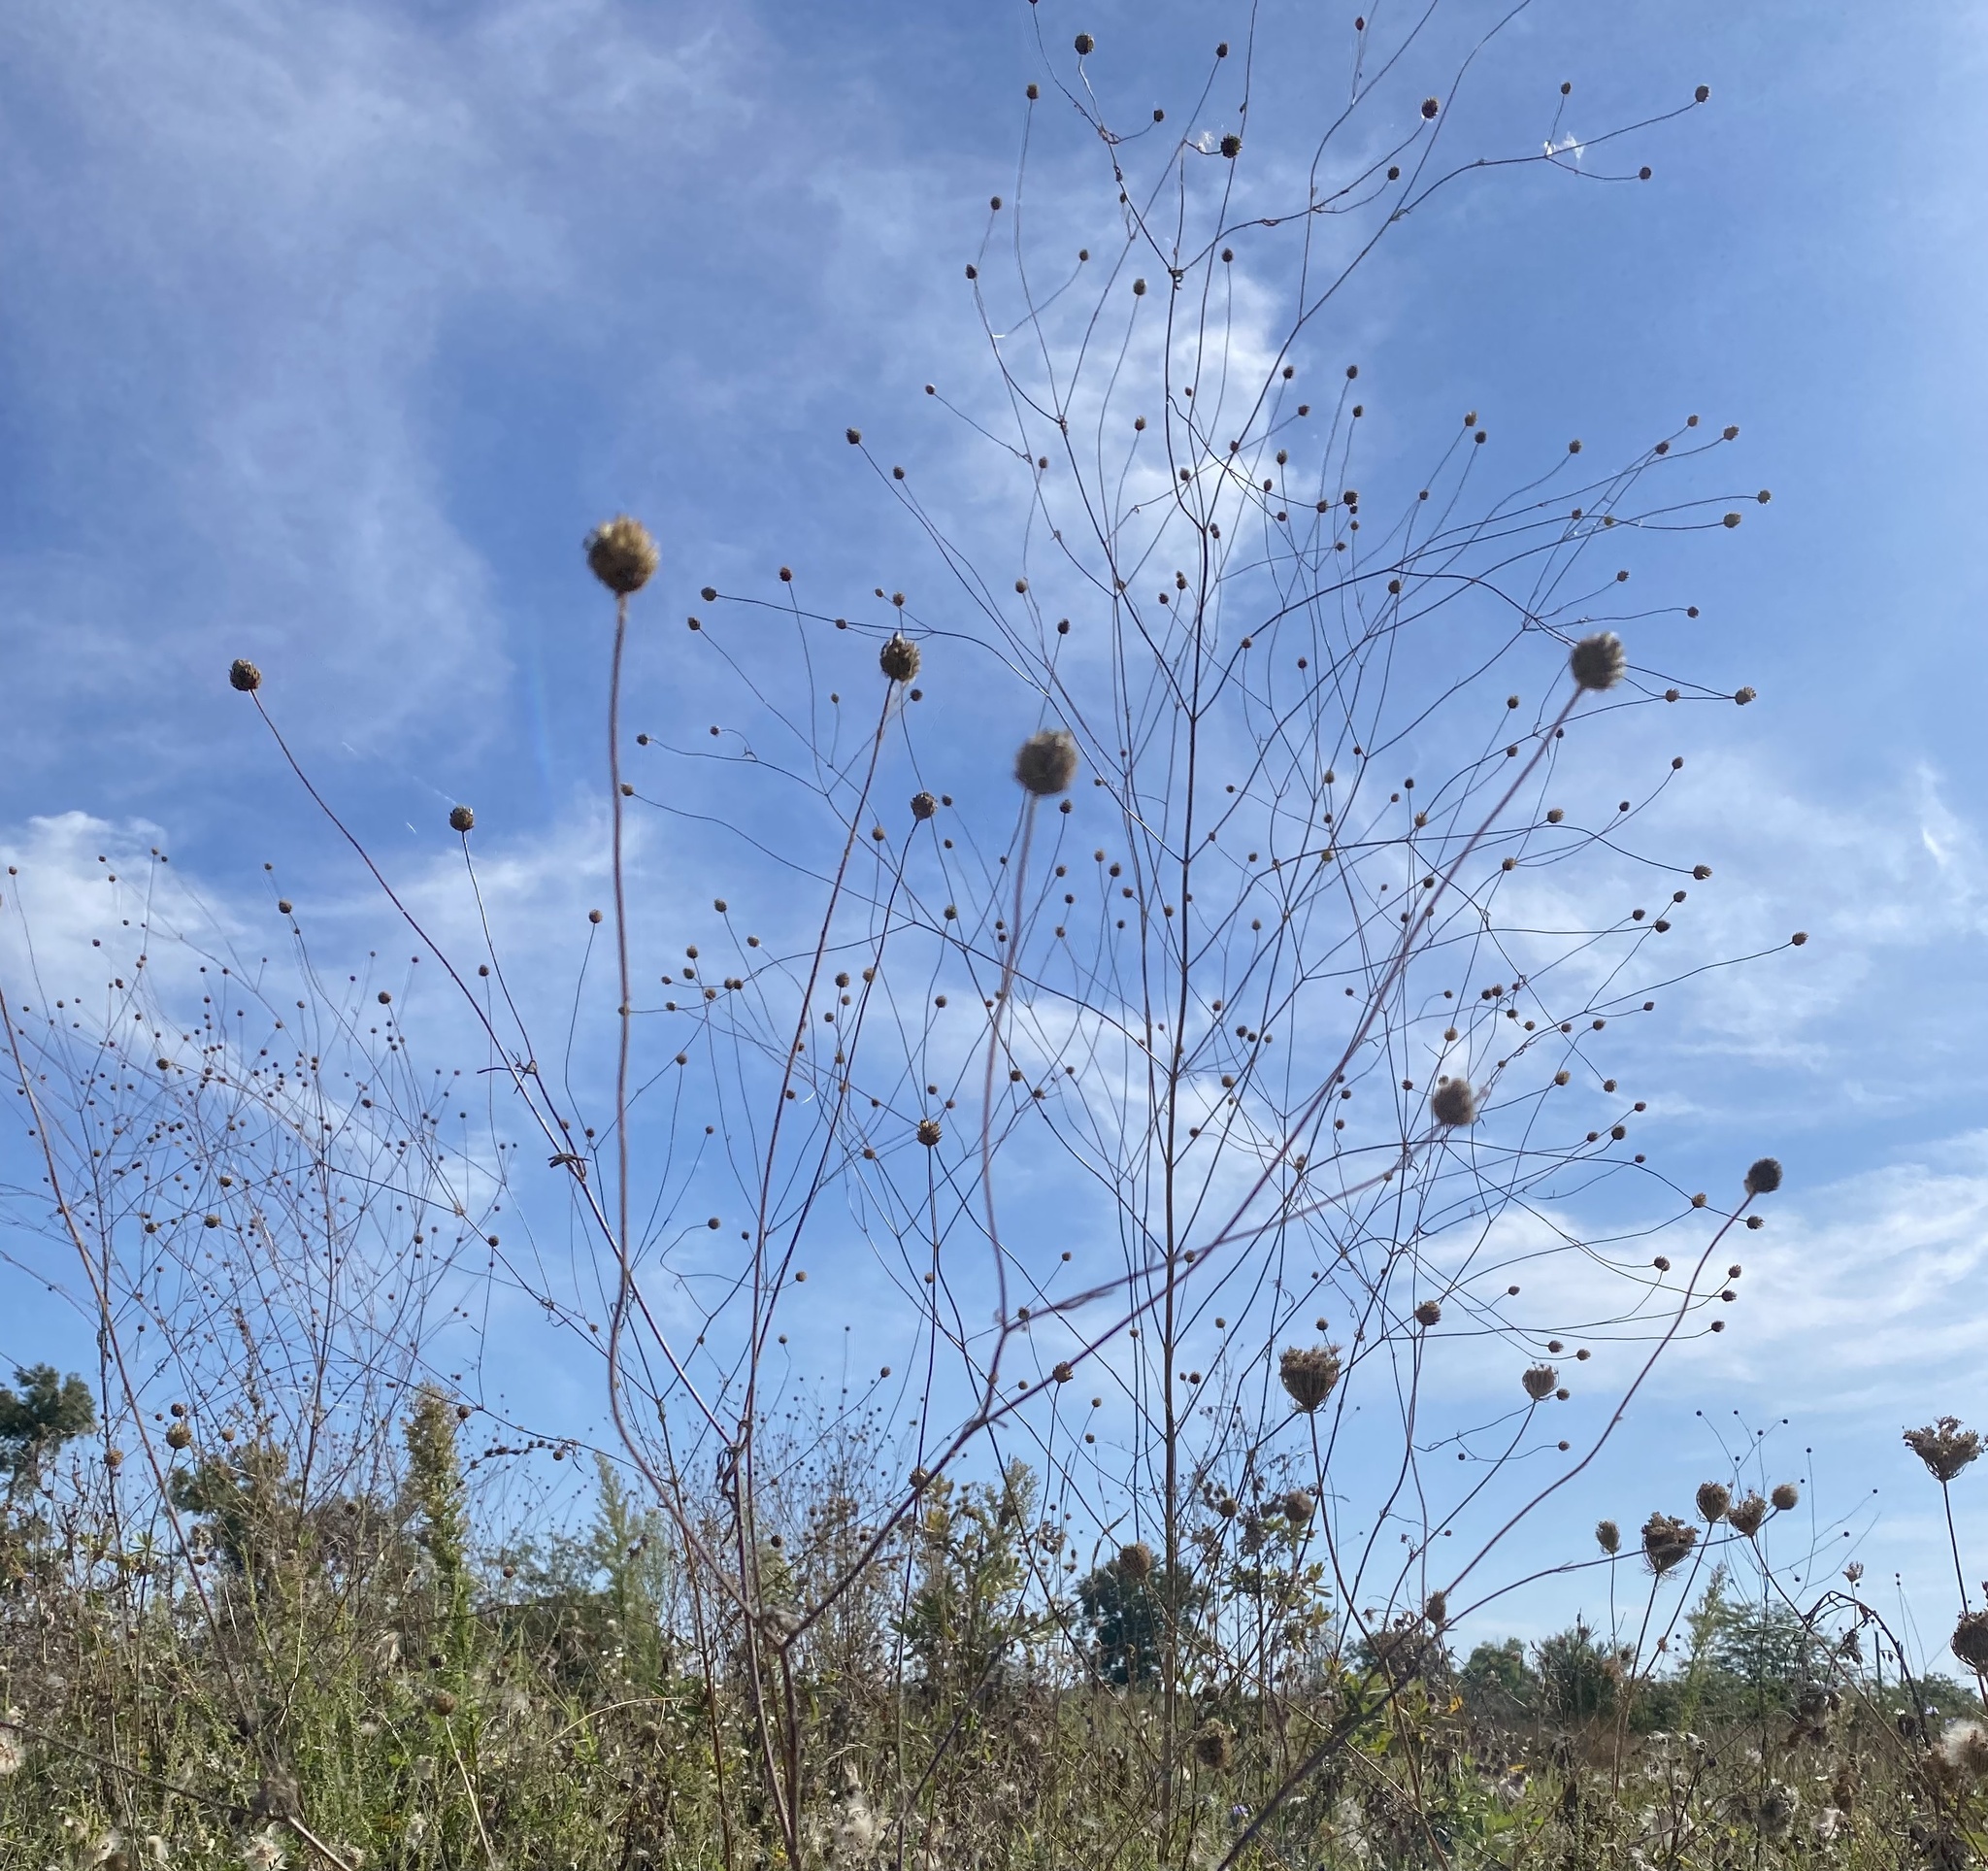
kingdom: Plantae
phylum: Tracheophyta
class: Magnoliopsida
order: Dipsacales
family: Caprifoliaceae
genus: Cephalaria
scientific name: Cephalaria transsylvanica
